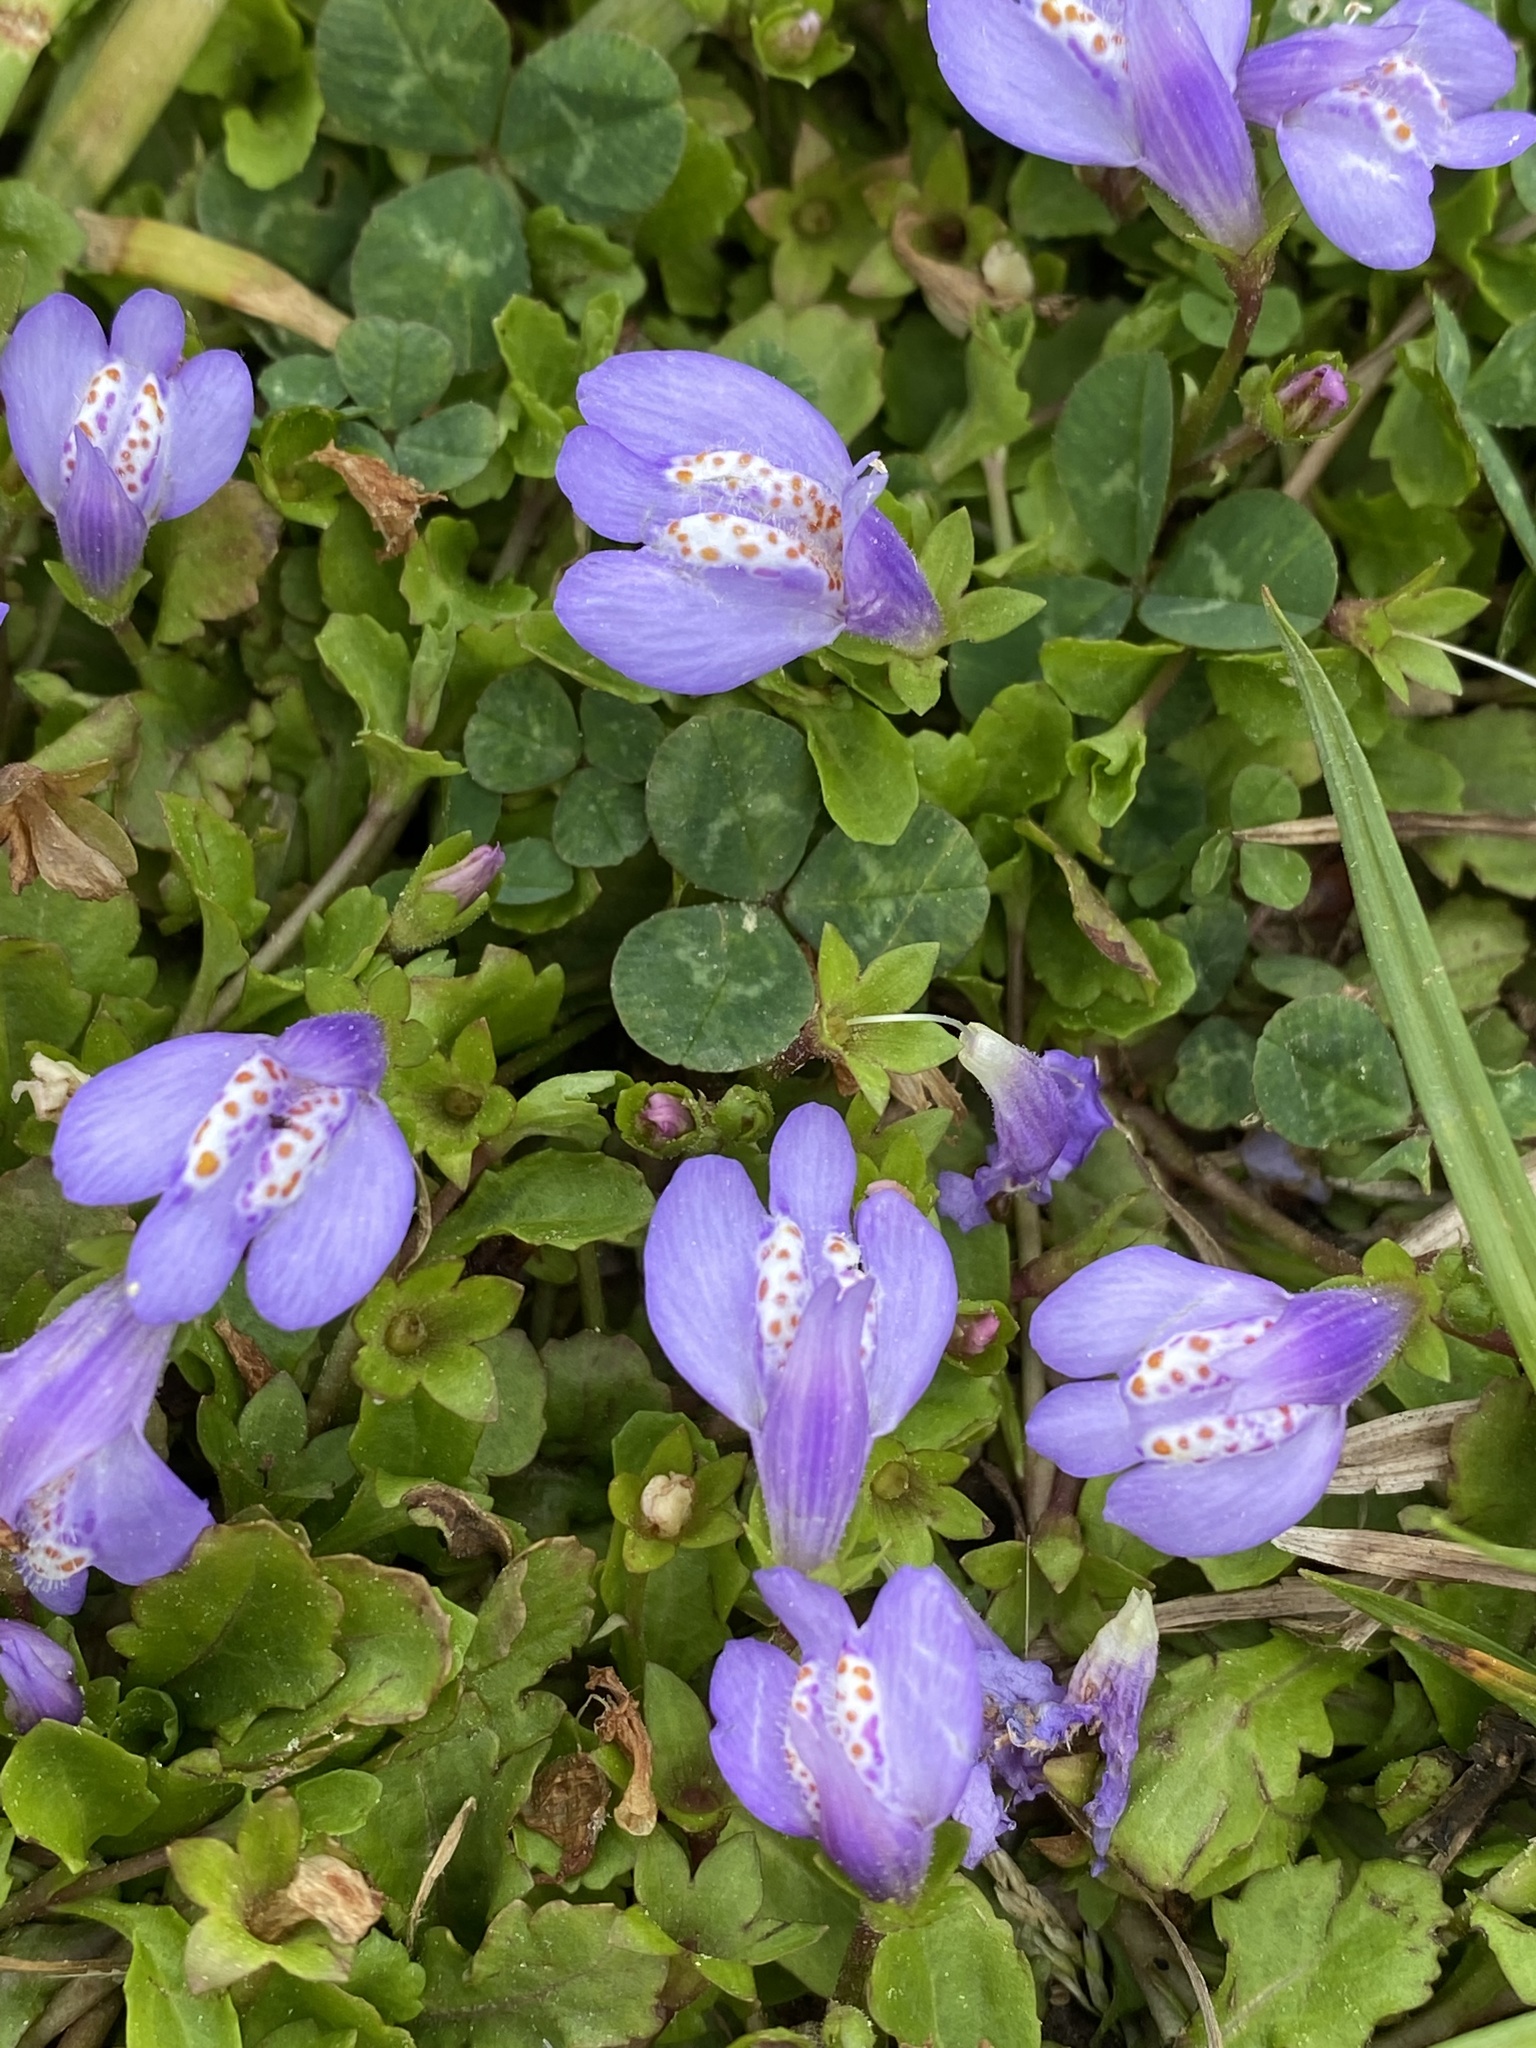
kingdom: Plantae
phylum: Tracheophyta
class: Magnoliopsida
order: Lamiales
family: Mazaceae
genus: Mazus
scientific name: Mazus miquelii
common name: Miquel's mazus
